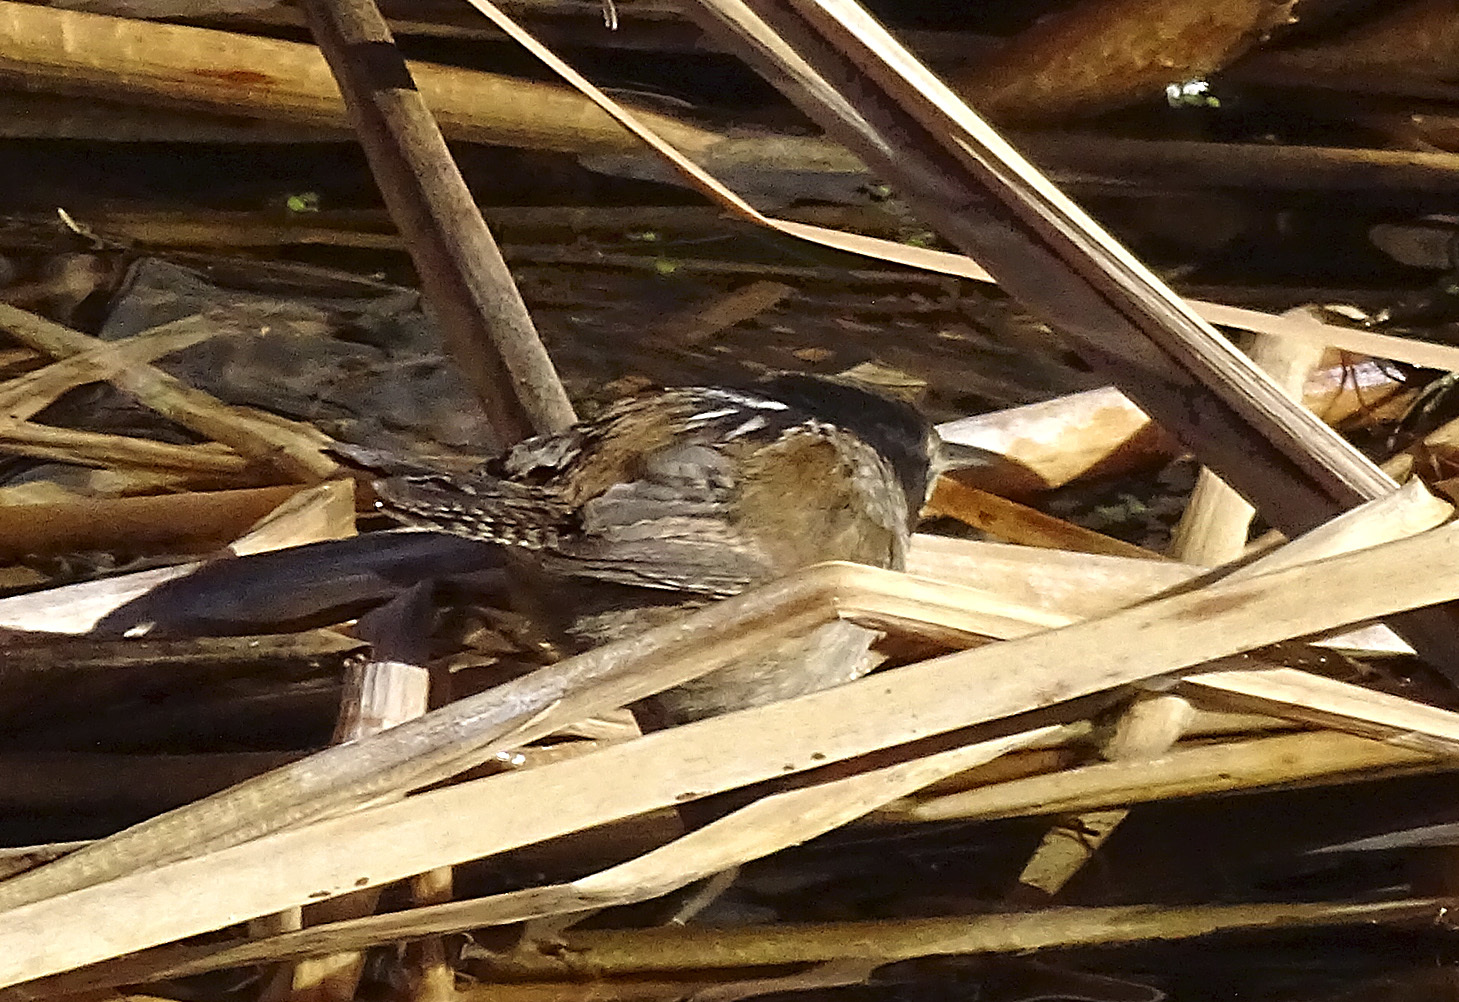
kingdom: Animalia
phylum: Chordata
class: Aves
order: Passeriformes
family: Troglodytidae
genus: Cistothorus
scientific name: Cistothorus palustris
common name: Marsh wren
